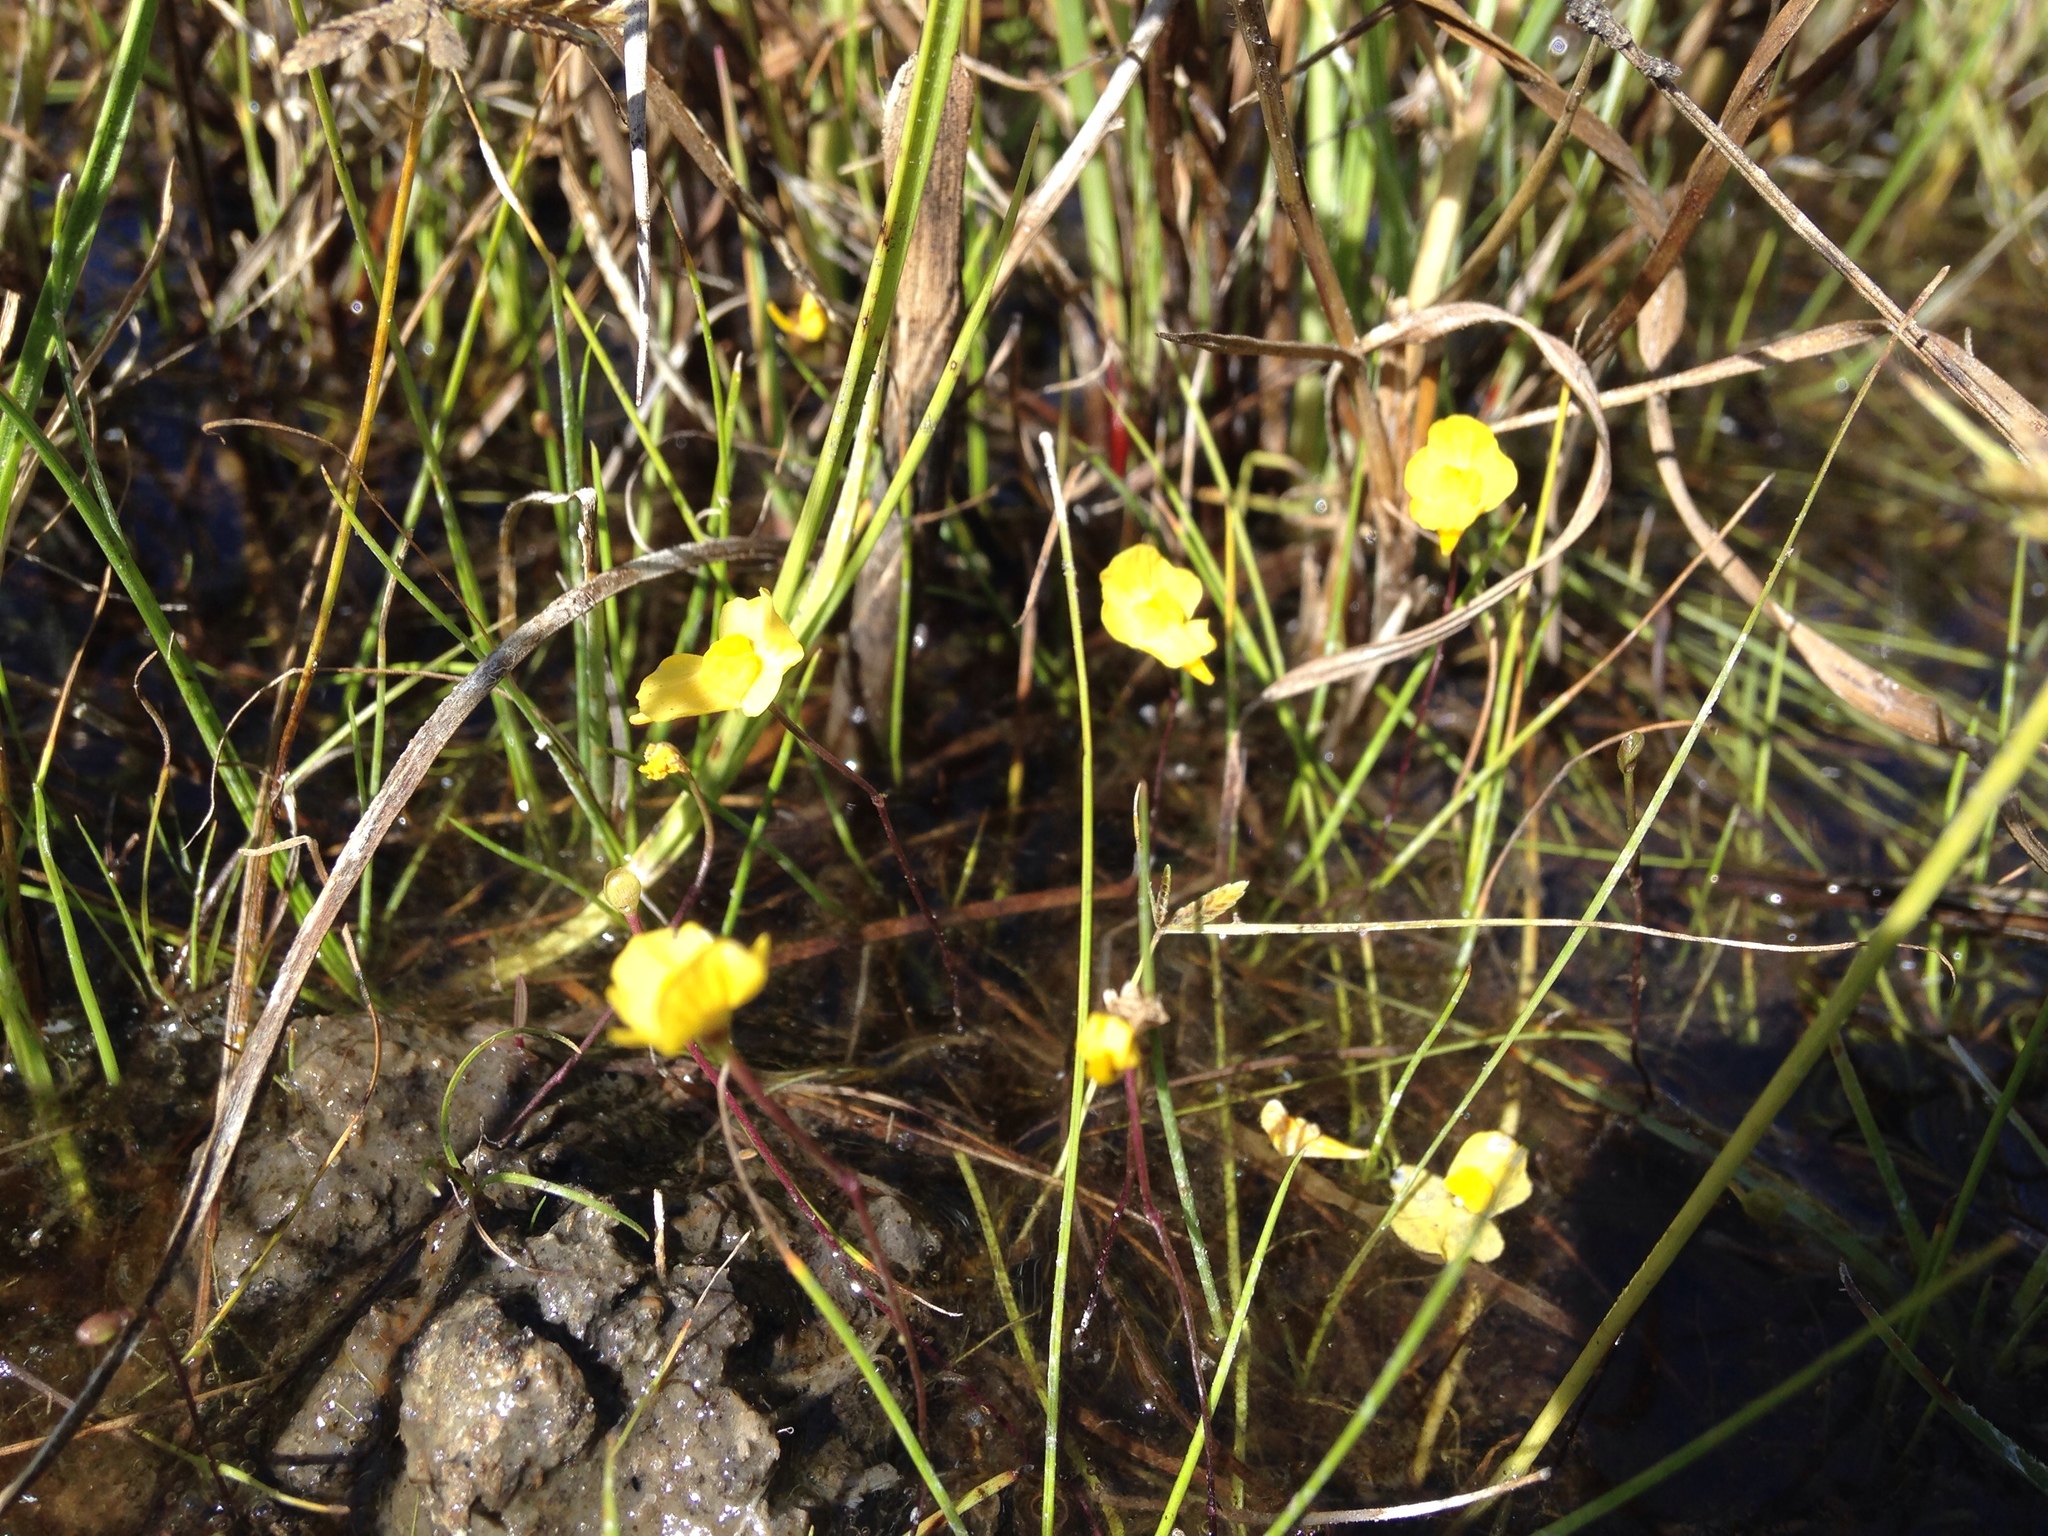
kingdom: Plantae
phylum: Tracheophyta
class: Magnoliopsida
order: Lamiales
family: Lentibulariaceae
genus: Utricularia
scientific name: Utricularia gibba
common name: Humped bladderwort
